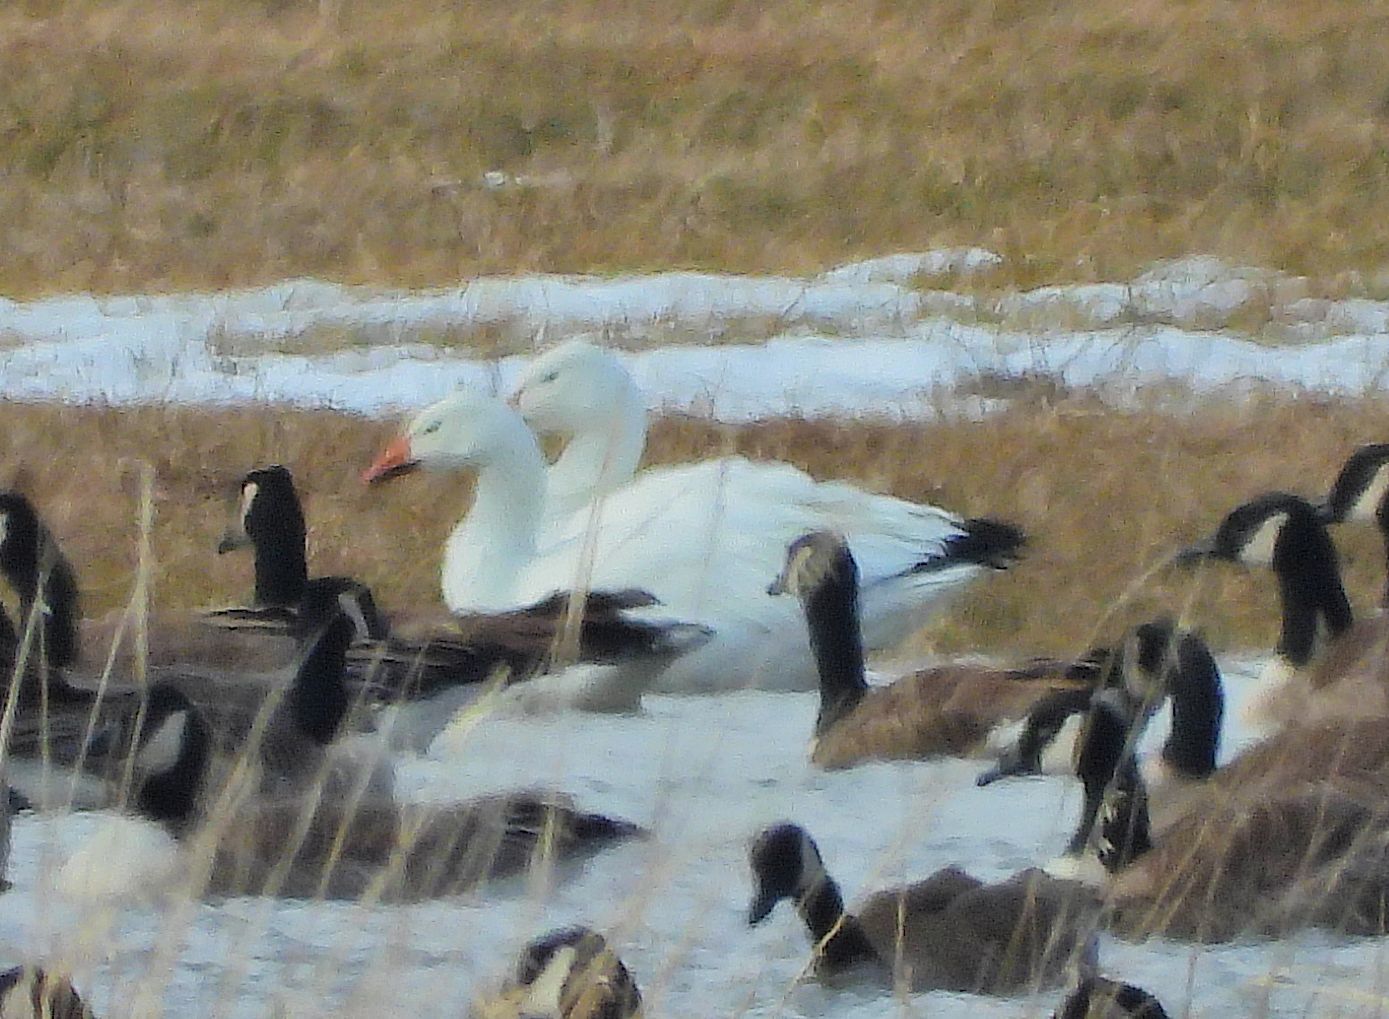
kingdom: Animalia
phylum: Chordata
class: Aves
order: Anseriformes
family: Anatidae
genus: Anser
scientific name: Anser caerulescens
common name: Snow goose
